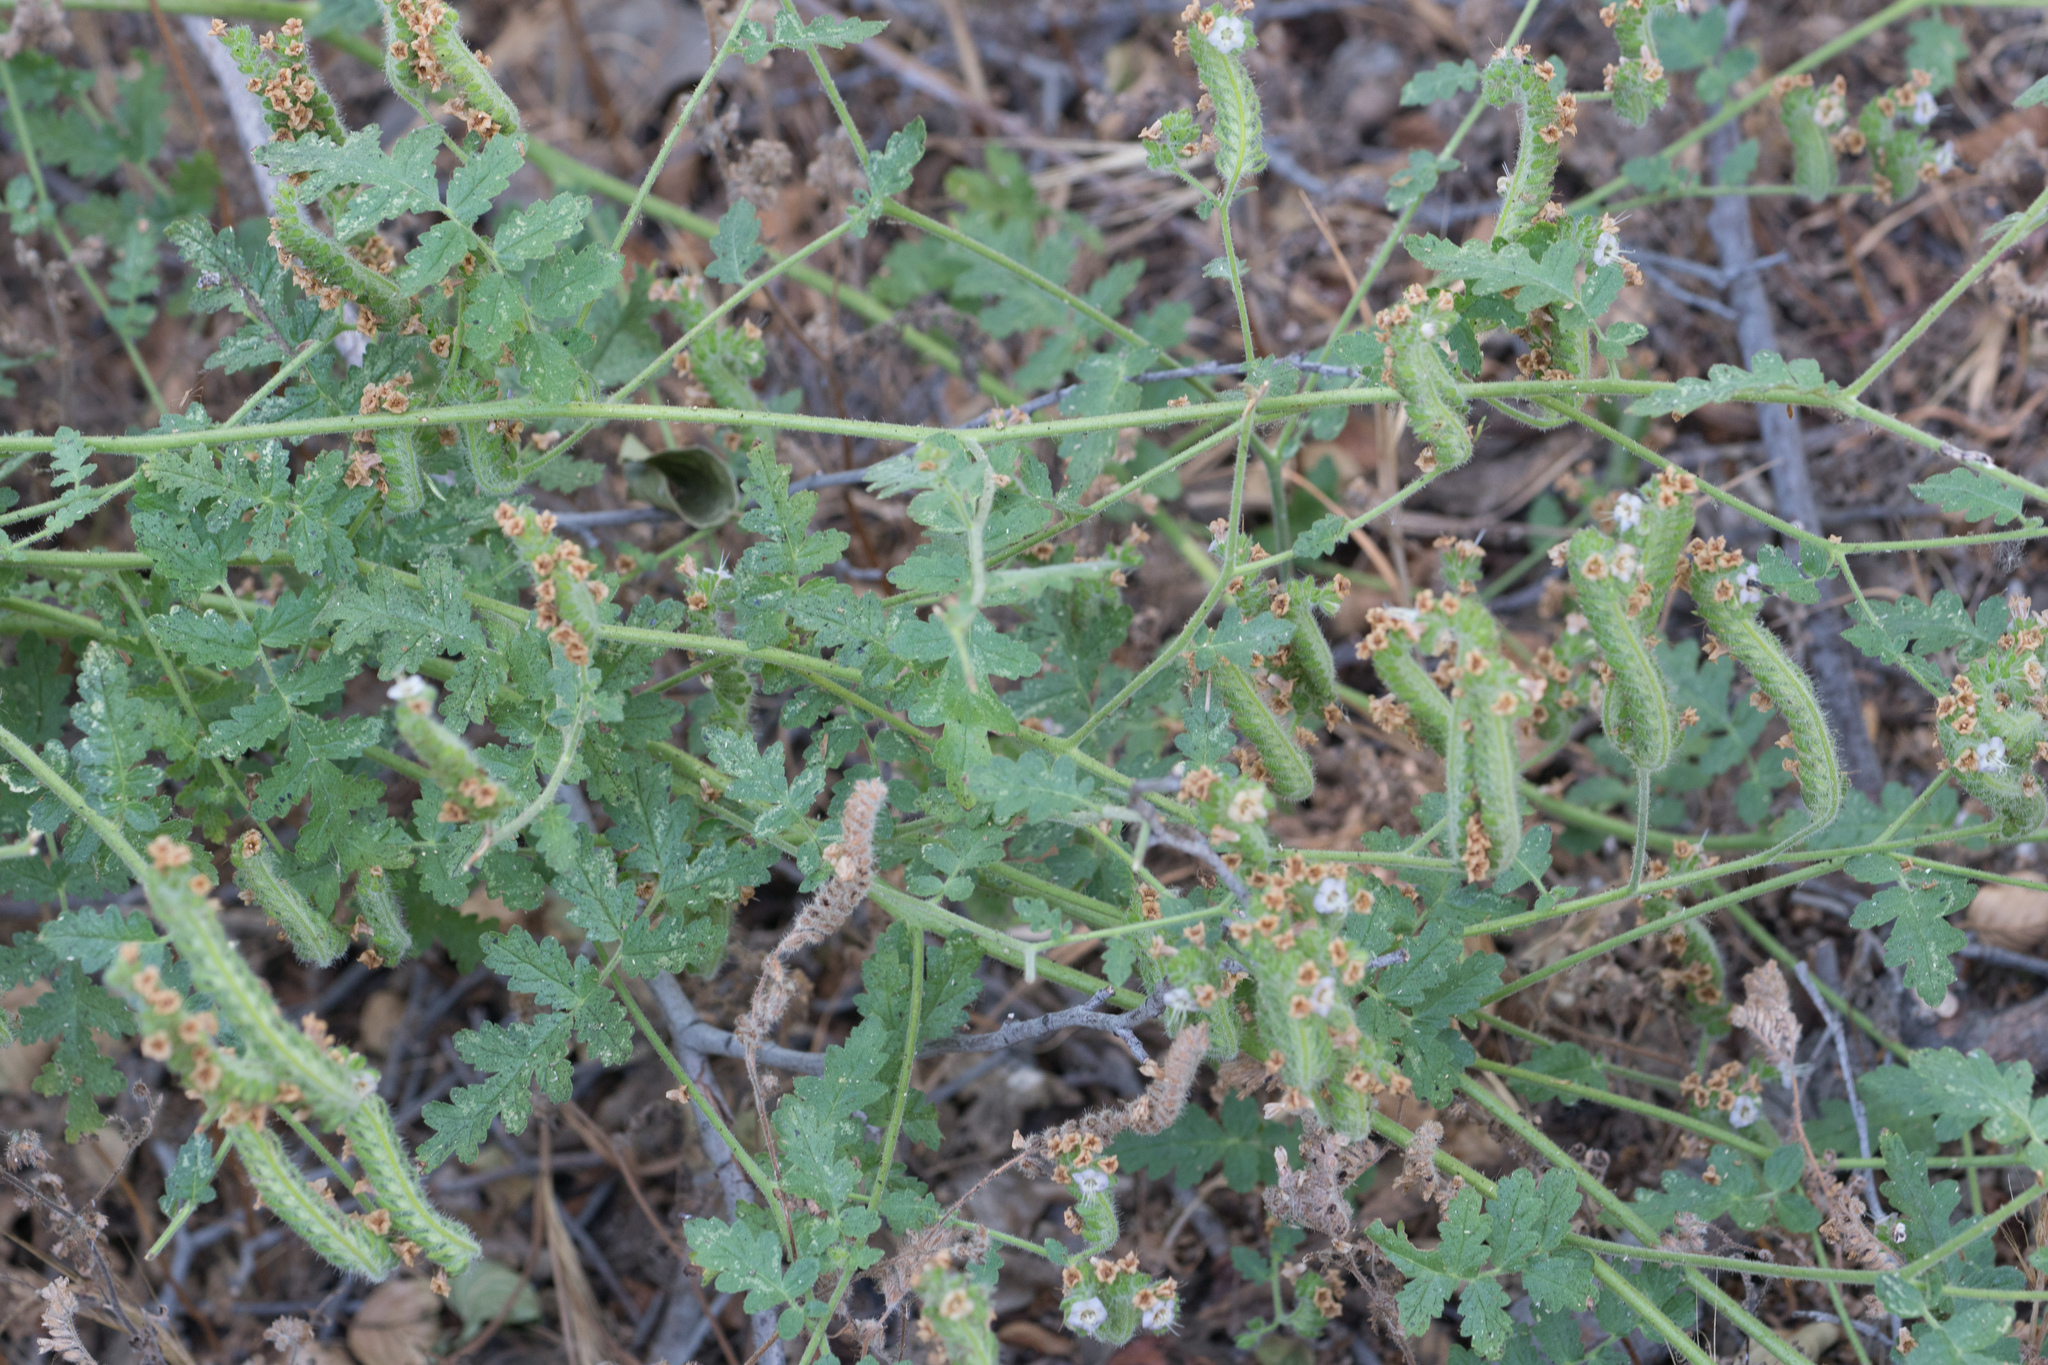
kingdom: Plantae
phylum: Tracheophyta
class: Magnoliopsida
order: Boraginales
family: Hydrophyllaceae
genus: Phacelia
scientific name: Phacelia ramosissima
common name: Branching phacelia
